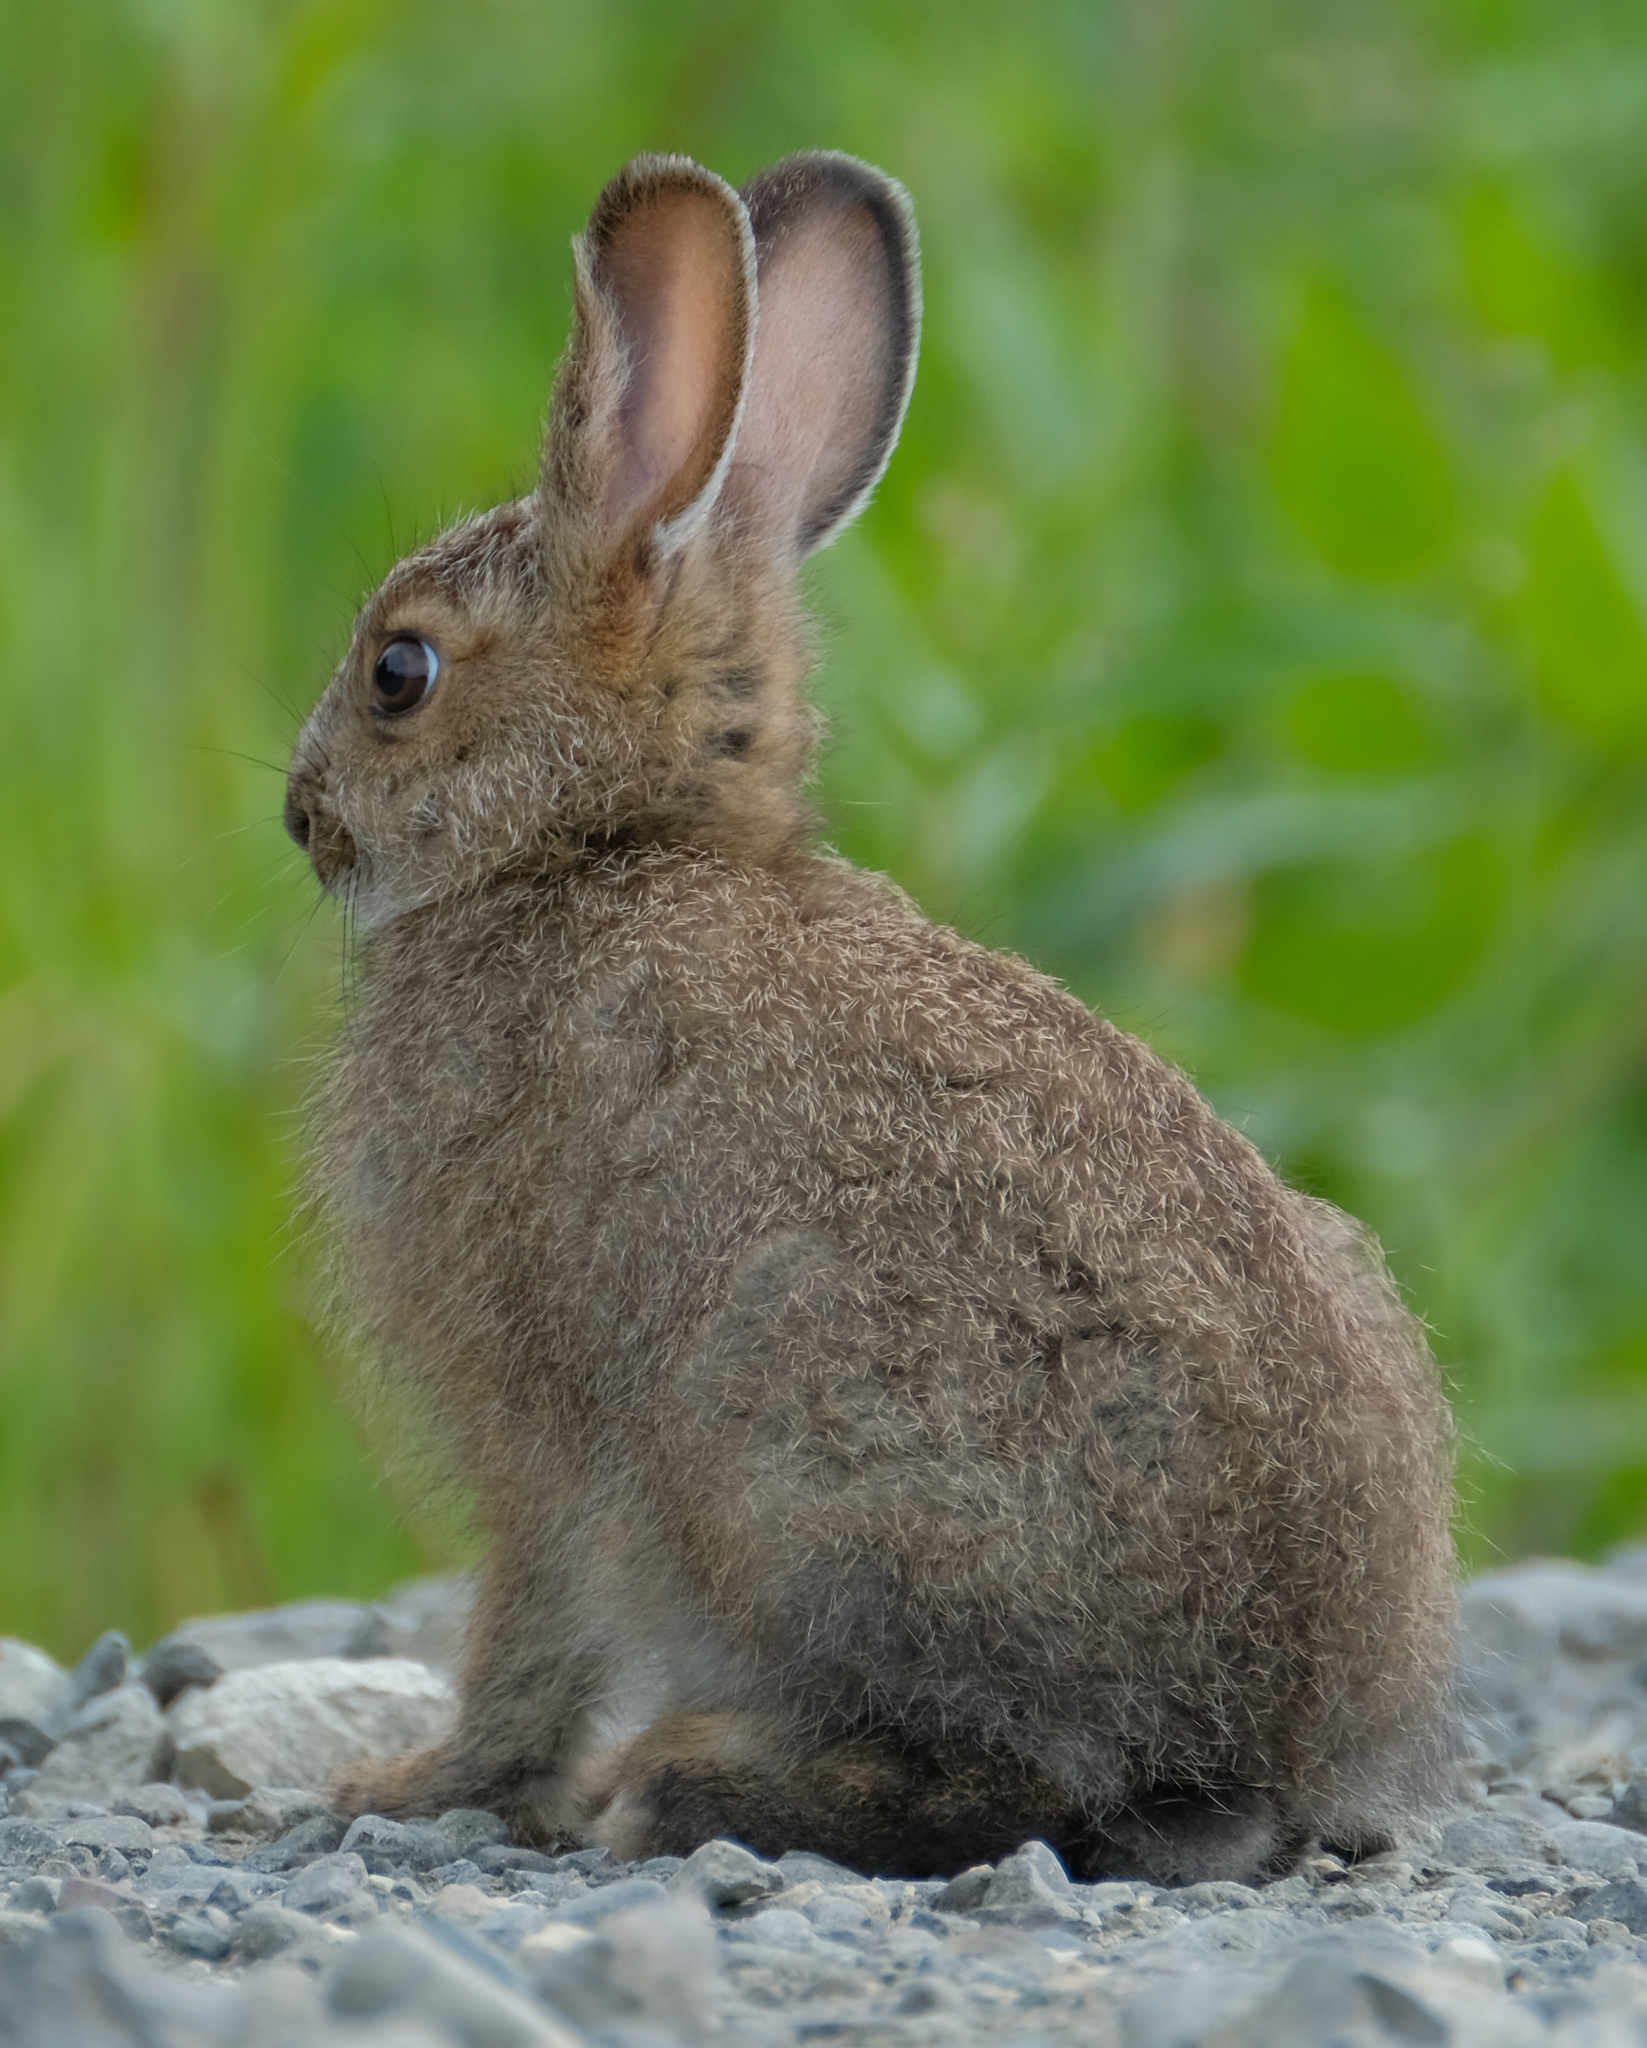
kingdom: Animalia
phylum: Chordata
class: Mammalia
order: Lagomorpha
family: Leporidae
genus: Lepus
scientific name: Lepus americanus
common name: Snowshoe hare
